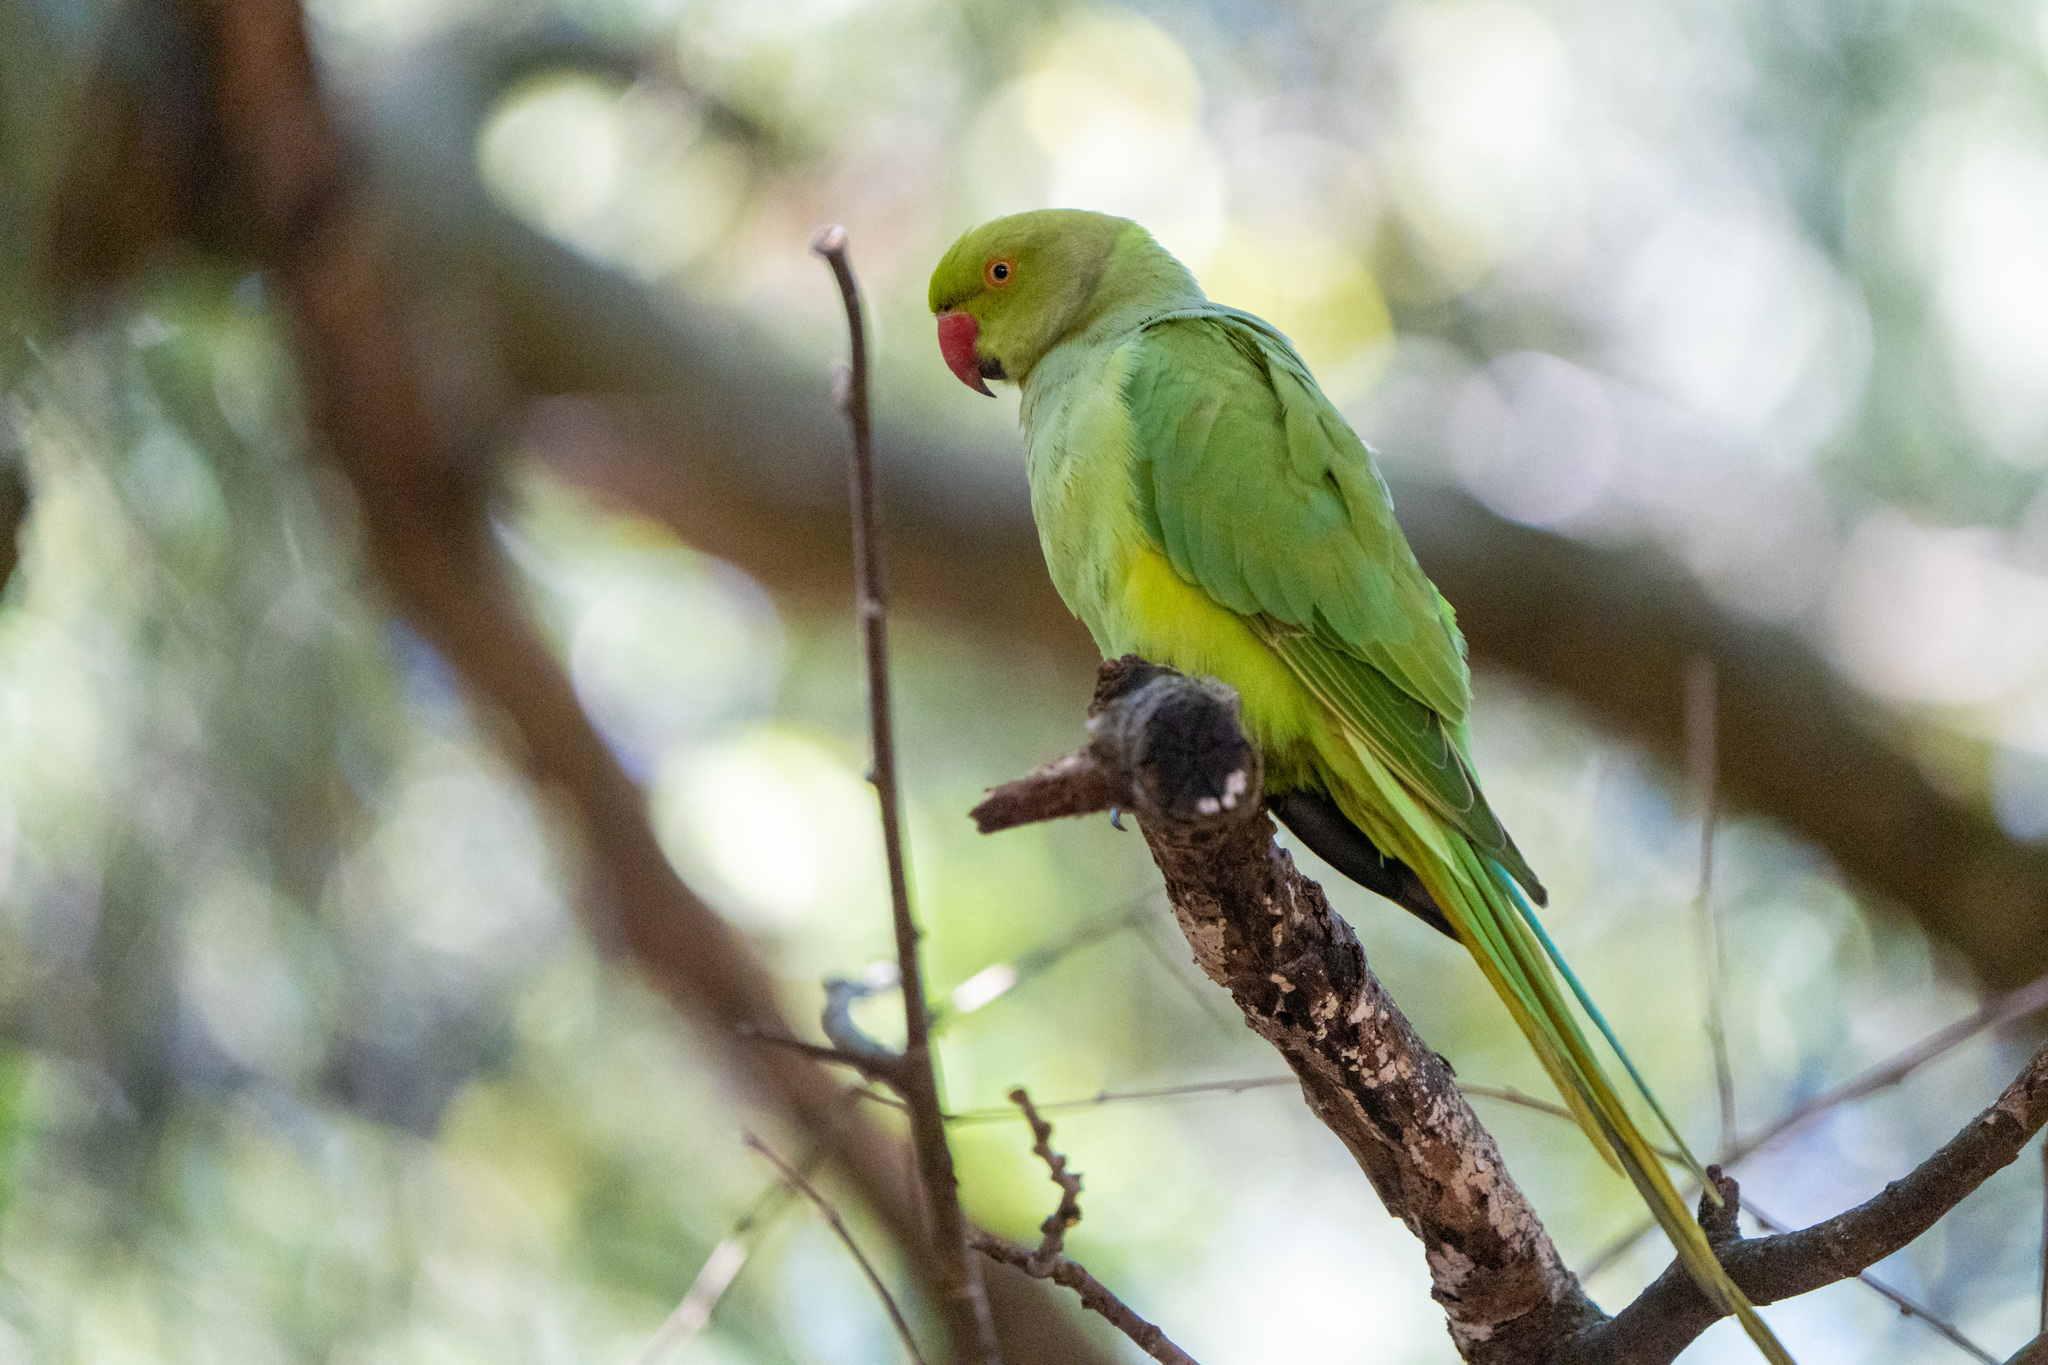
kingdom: Animalia
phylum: Chordata
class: Aves
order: Psittaciformes
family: Psittacidae
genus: Psittacula
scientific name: Psittacula krameri
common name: Rose-ringed parakeet
